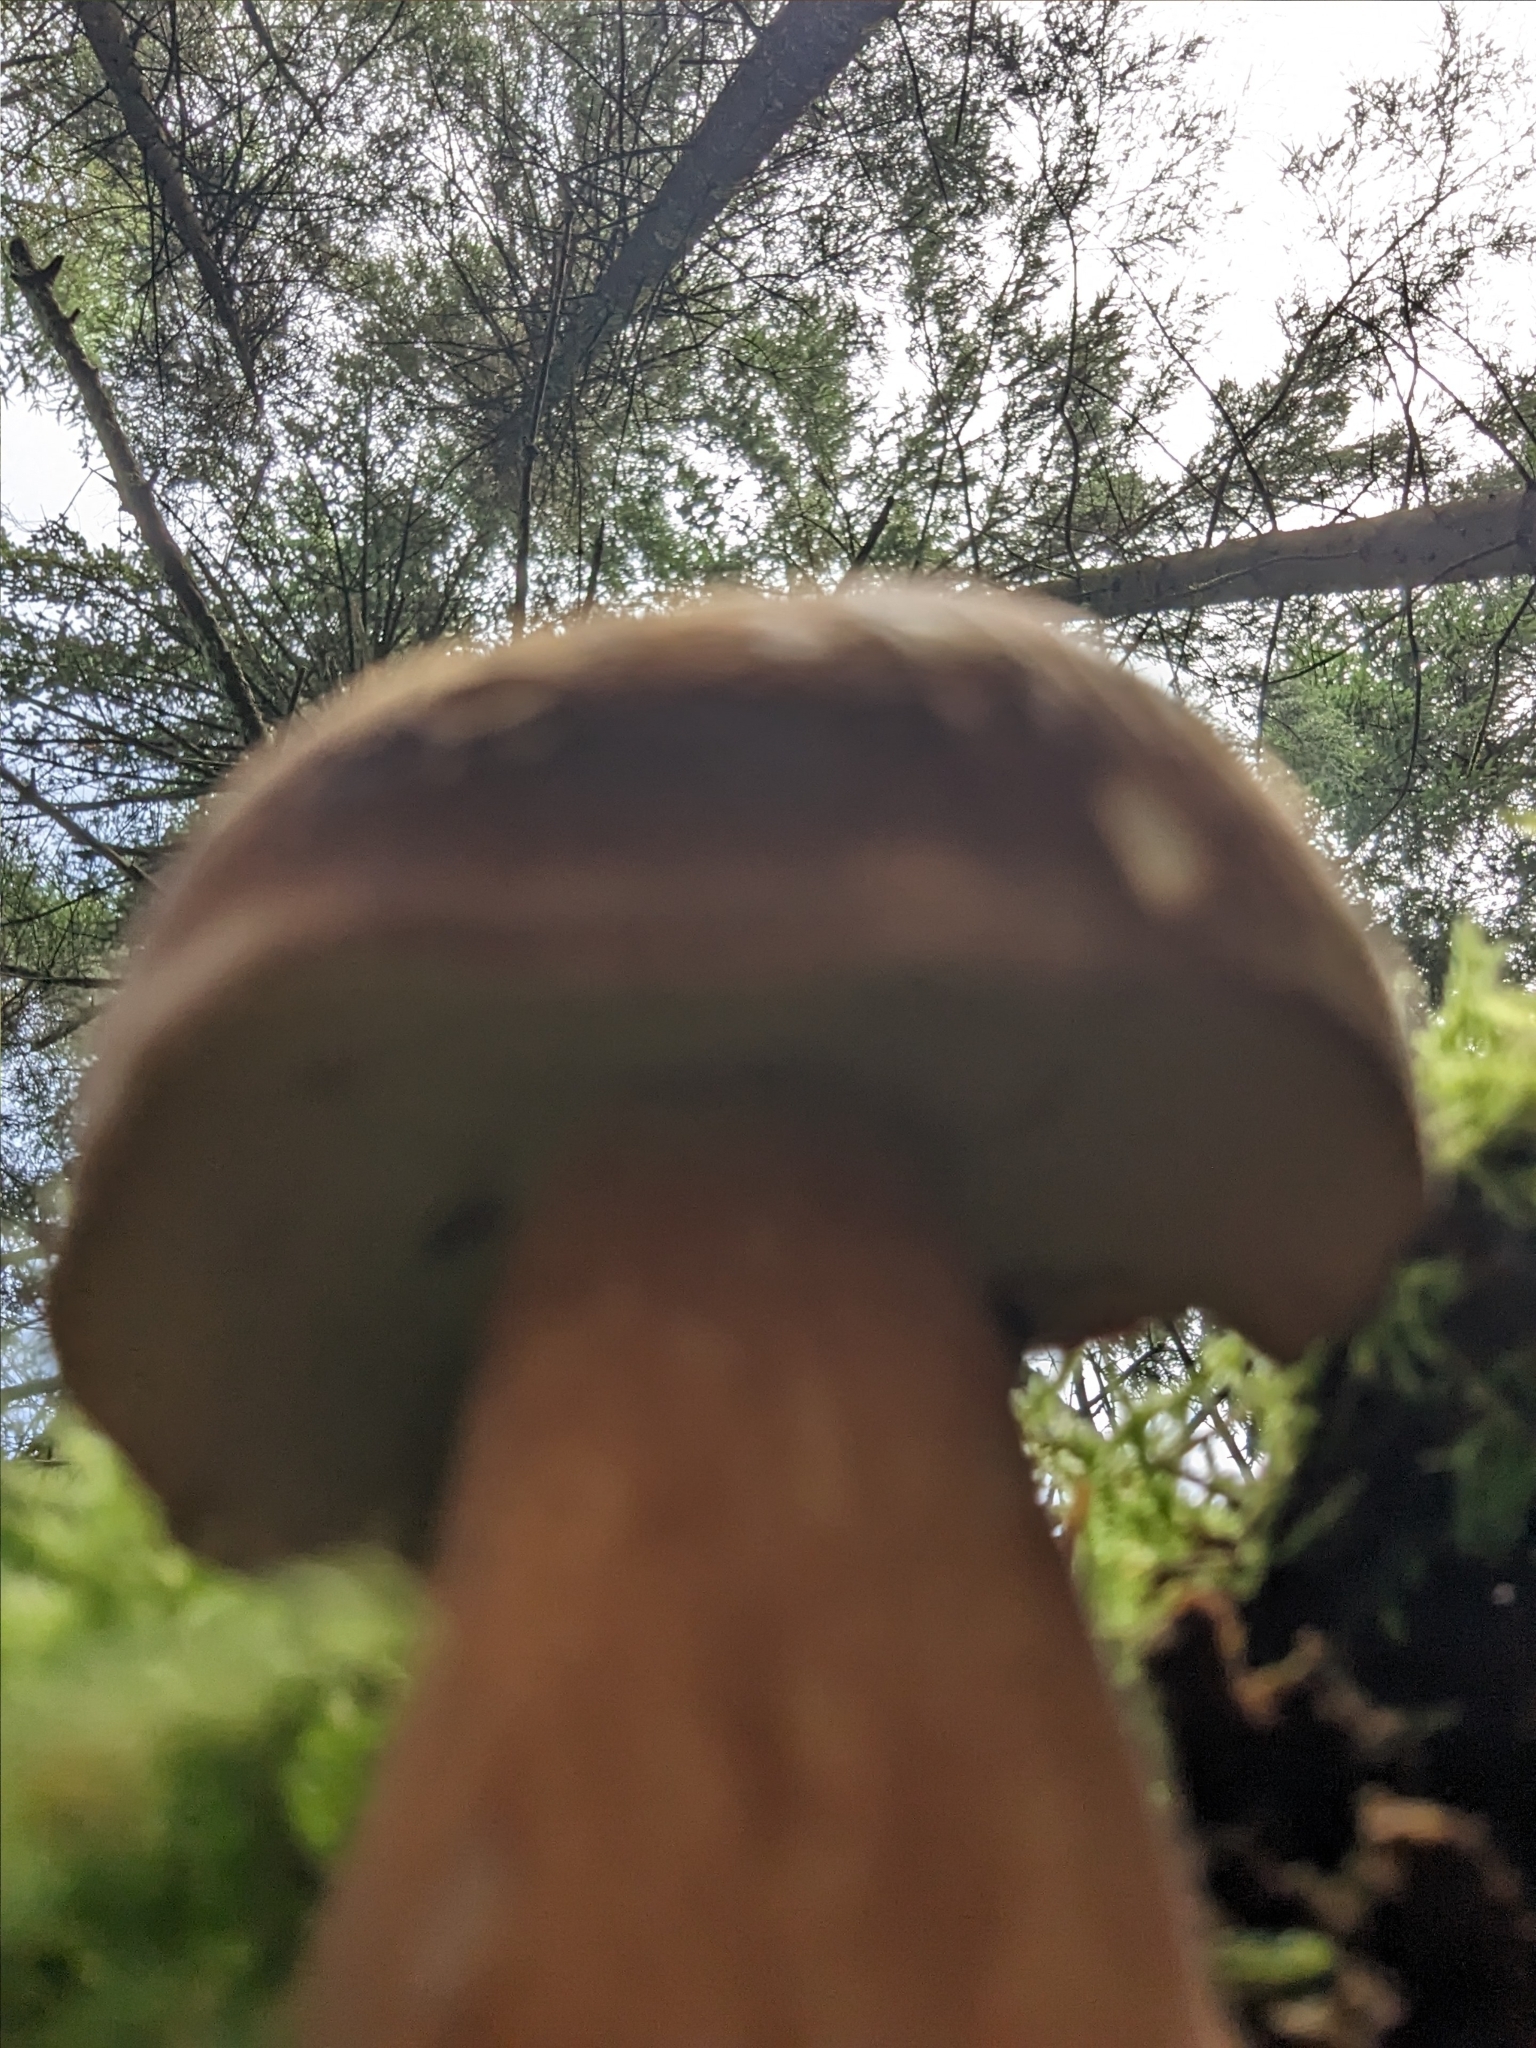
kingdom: Fungi
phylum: Basidiomycota
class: Agaricomycetes
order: Boletales
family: Boletaceae
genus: Imleria
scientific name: Imleria badia
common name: Bay bolete
